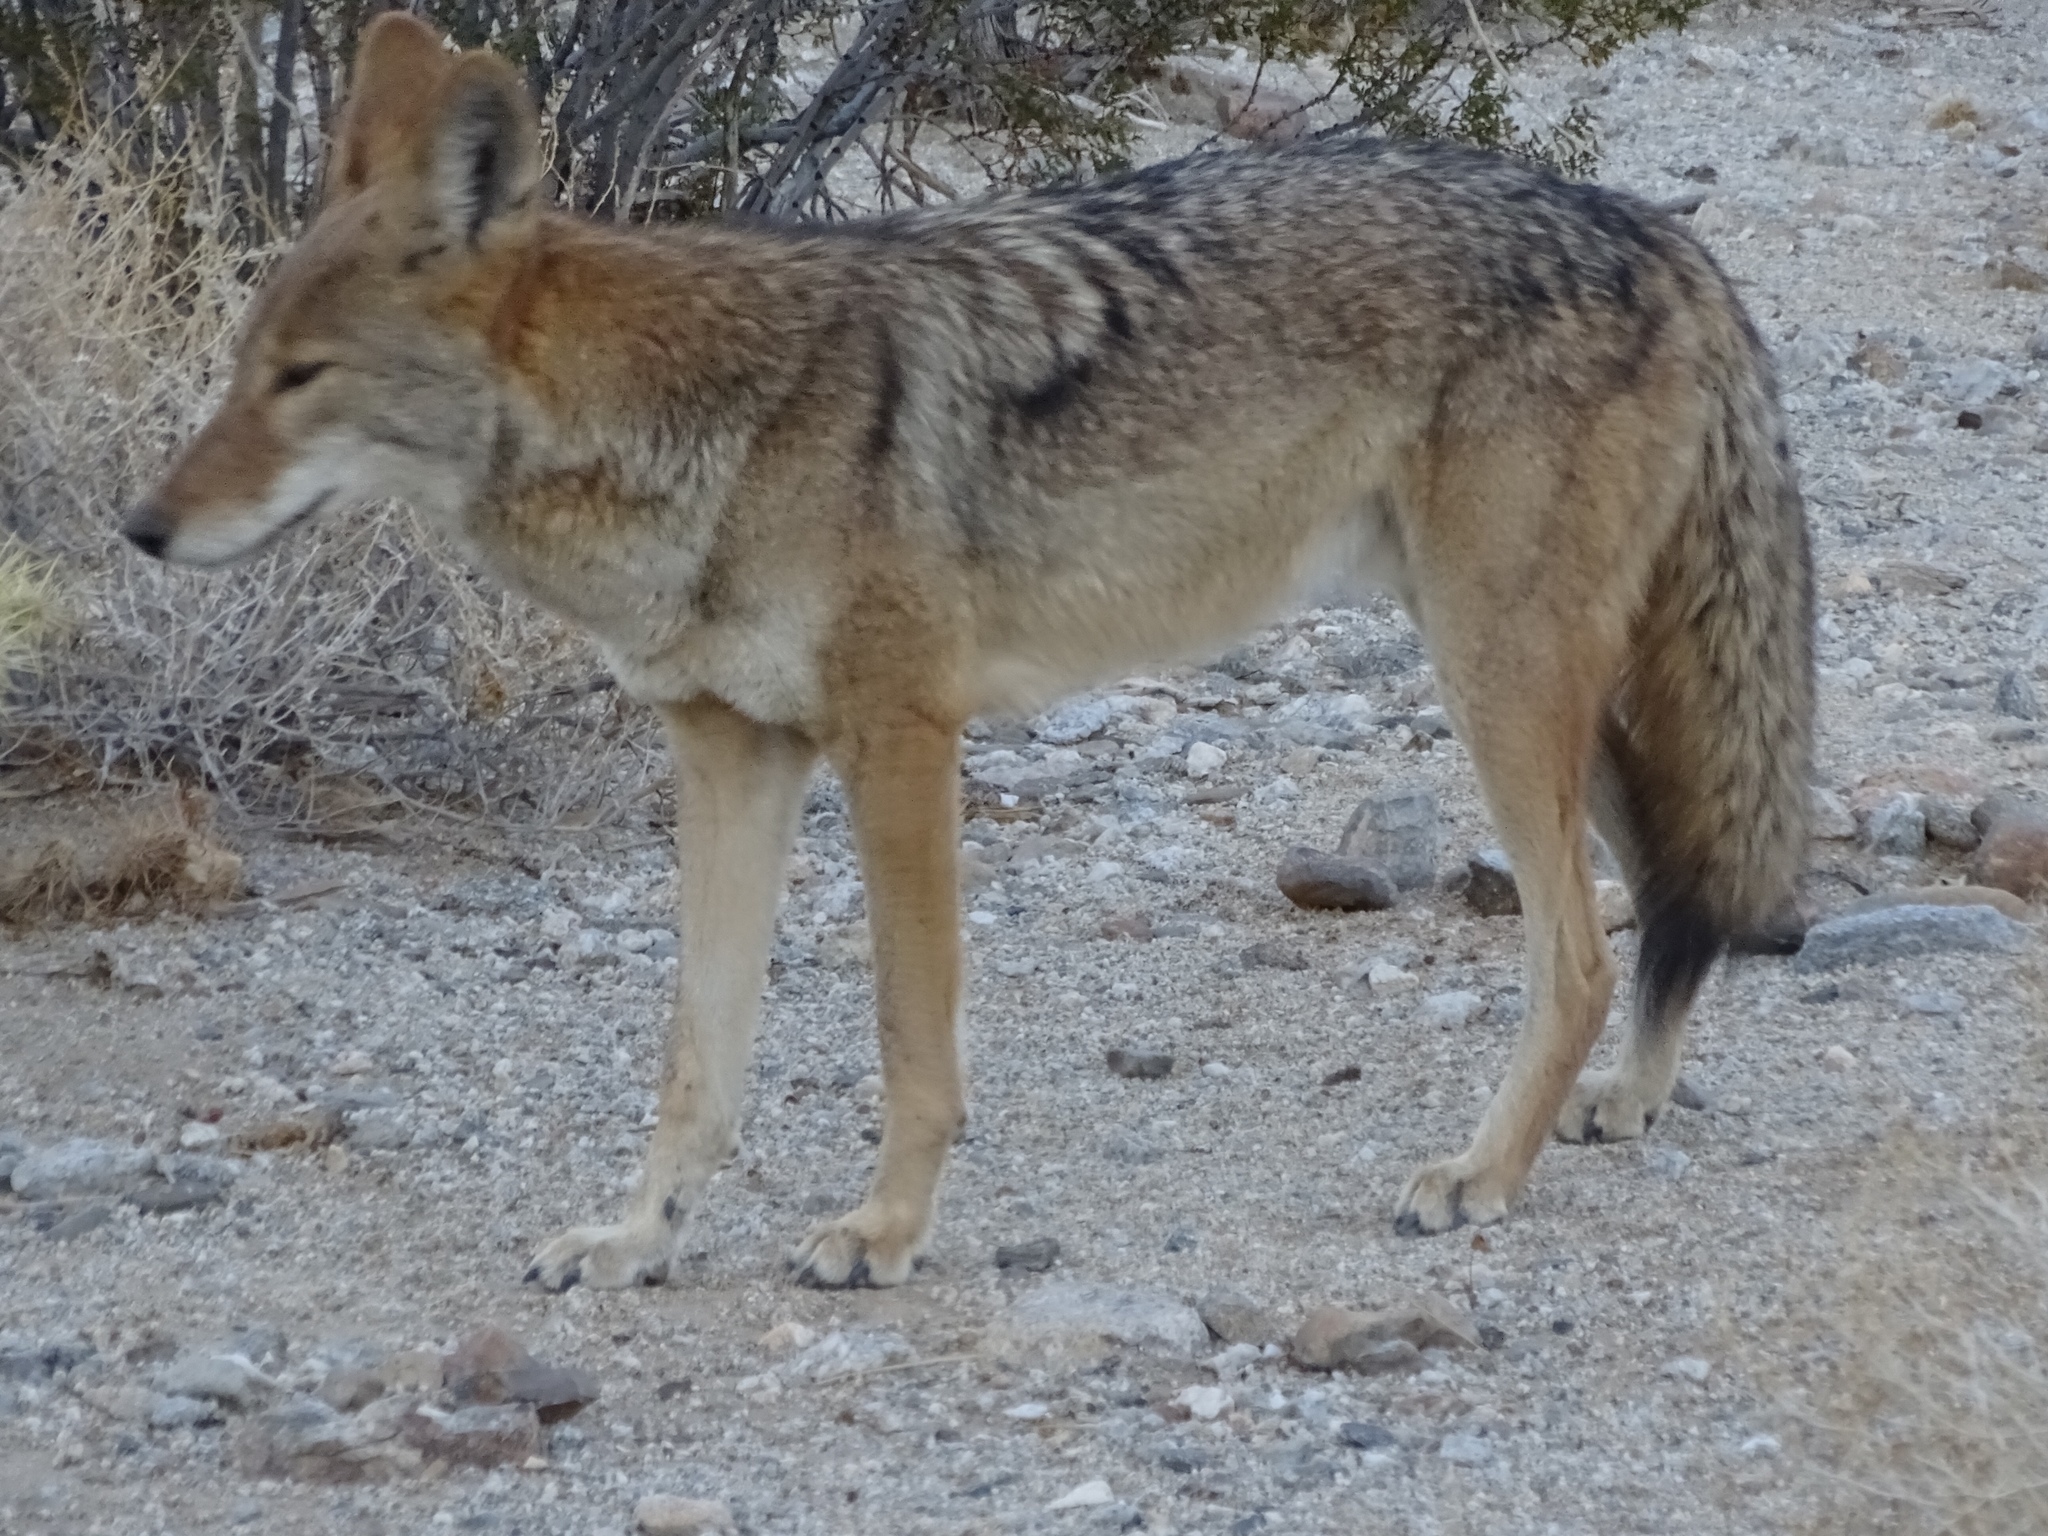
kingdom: Animalia
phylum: Chordata
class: Mammalia
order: Carnivora
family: Canidae
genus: Canis
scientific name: Canis latrans
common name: Coyote
